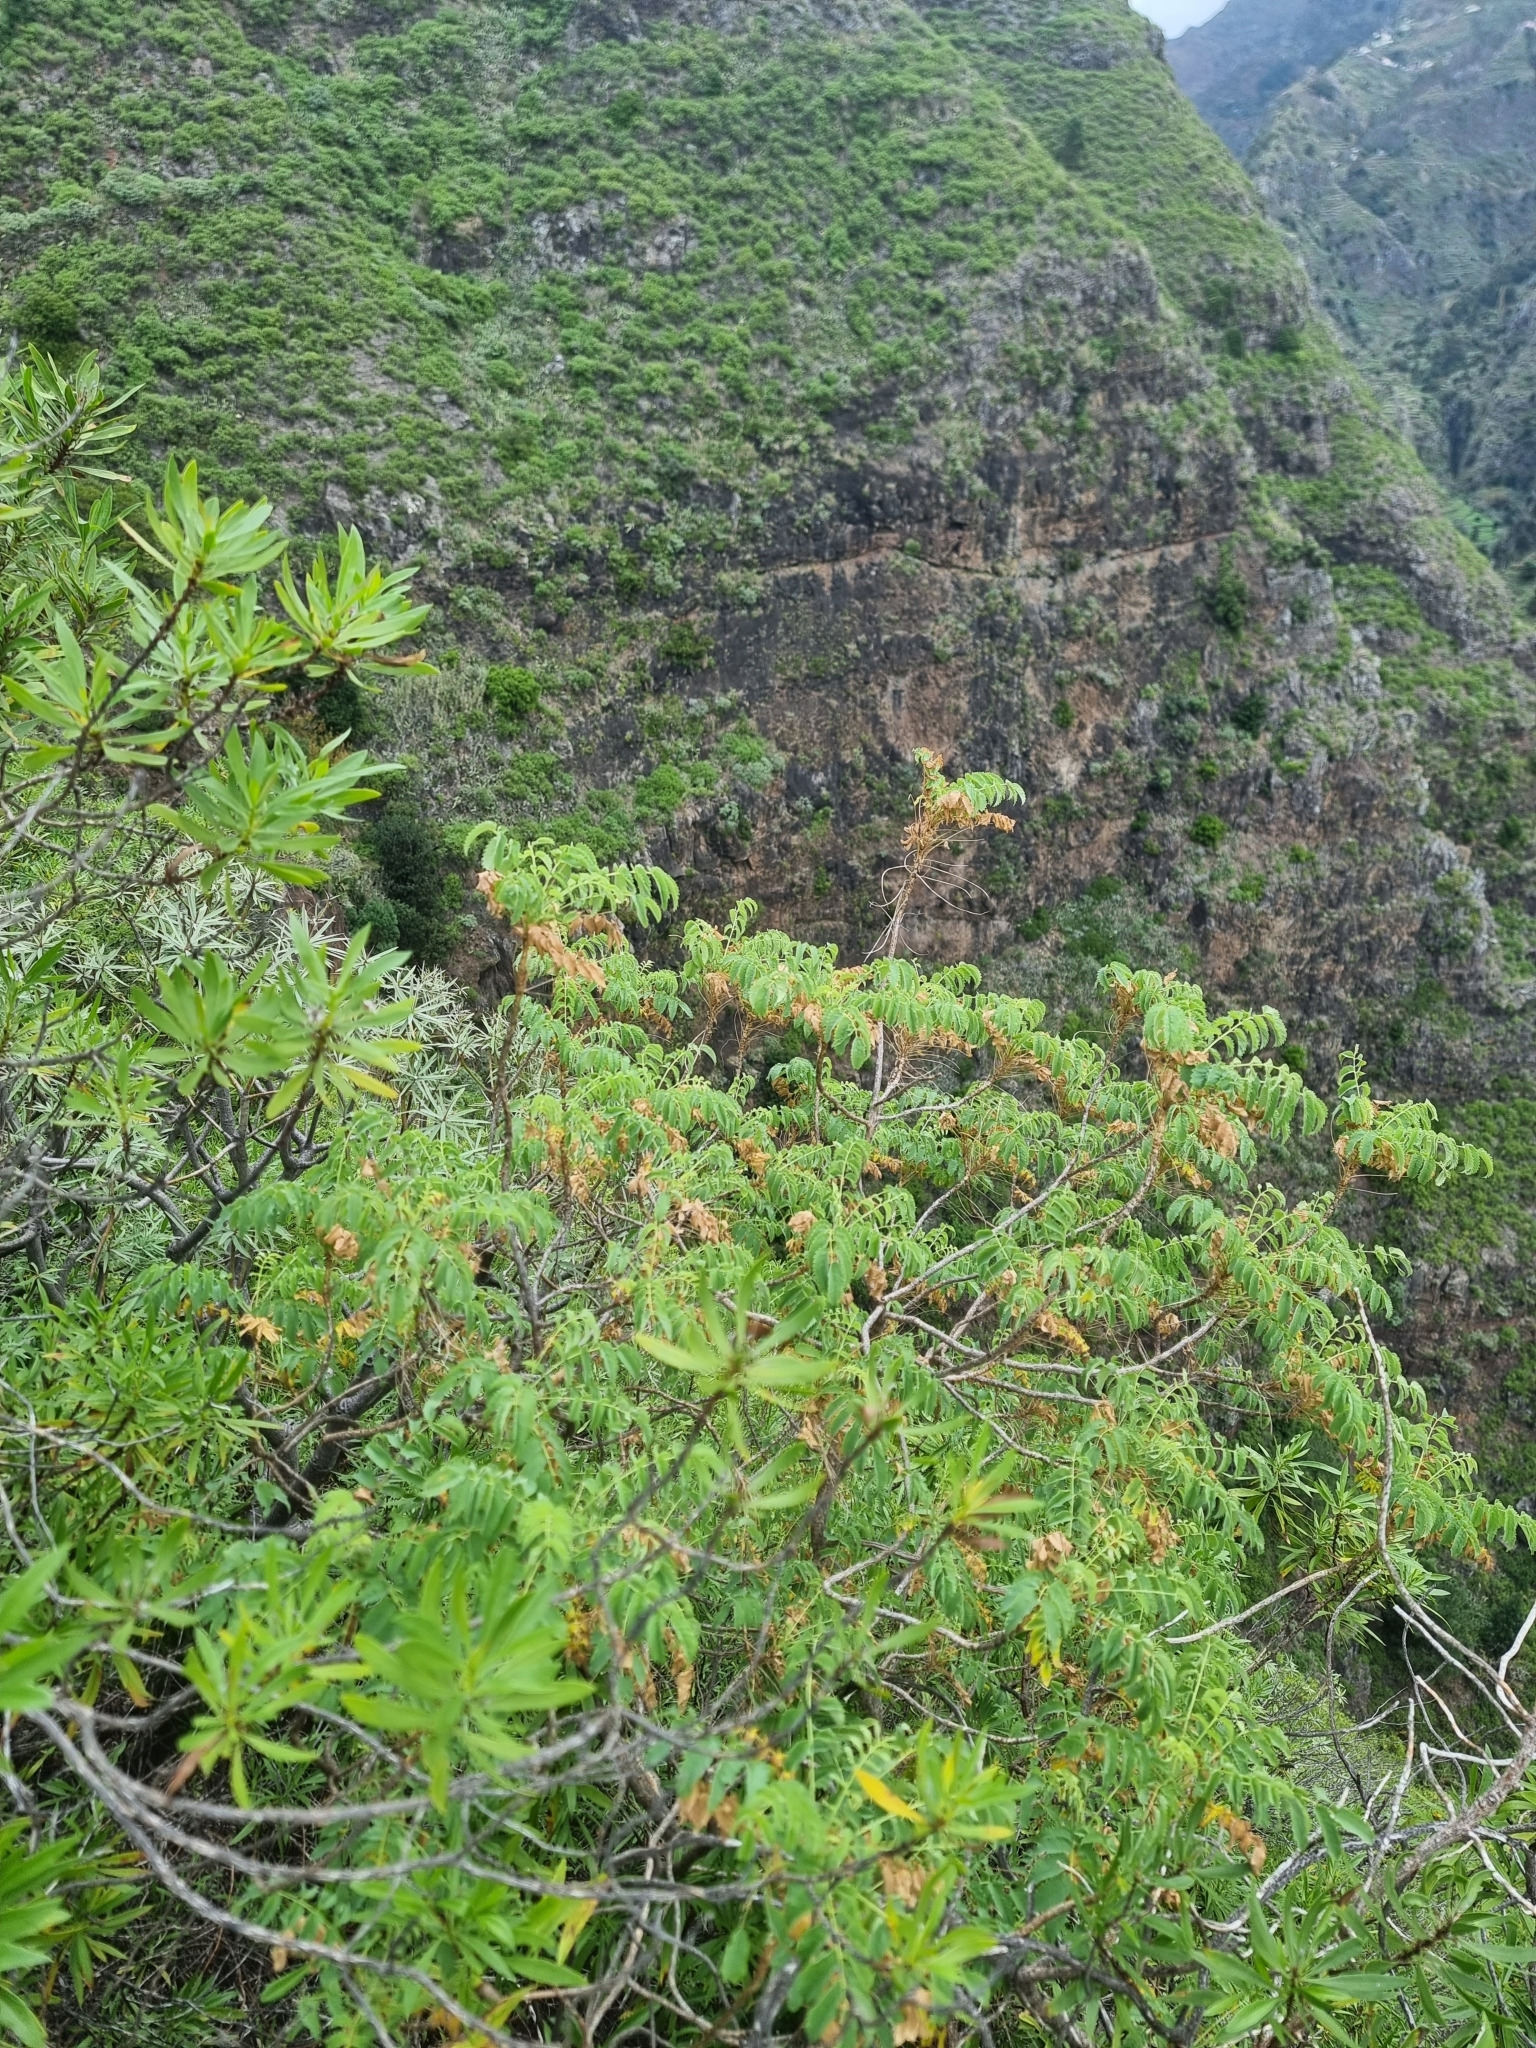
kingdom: Plantae
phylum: Tracheophyta
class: Magnoliopsida
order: Rosales
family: Rosaceae
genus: Marcetella
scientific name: Marcetella maderensis
